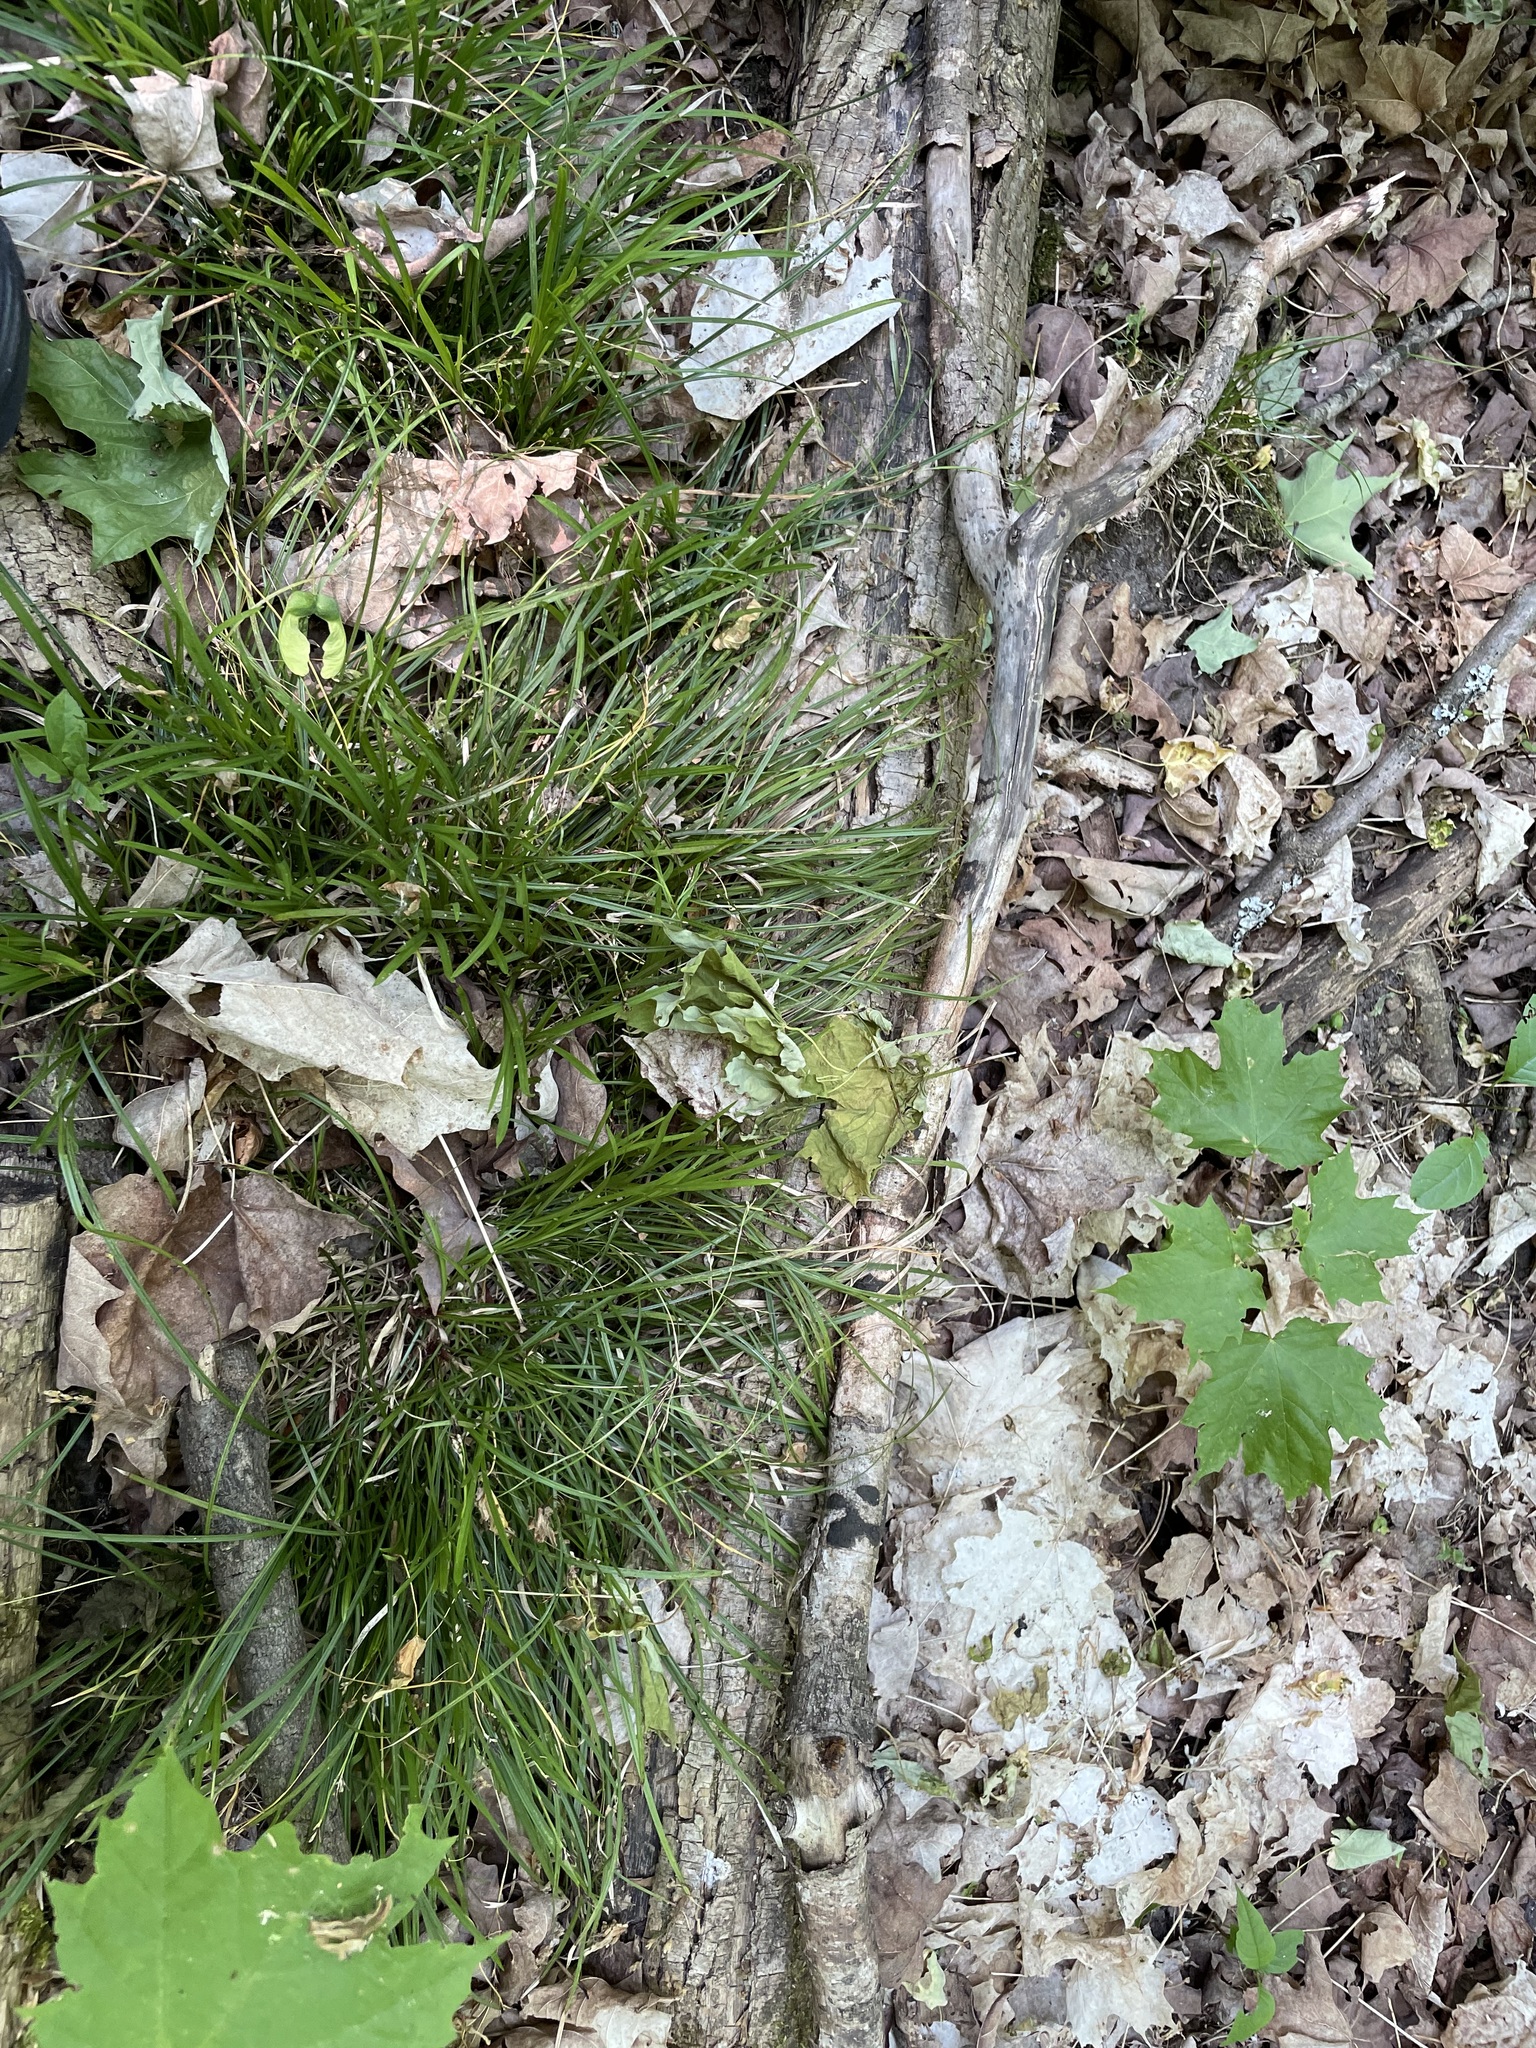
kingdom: Plantae
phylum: Tracheophyta
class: Liliopsida
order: Poales
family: Cyperaceae
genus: Carex
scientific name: Carex pedunculata
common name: Pedunculate sedge
